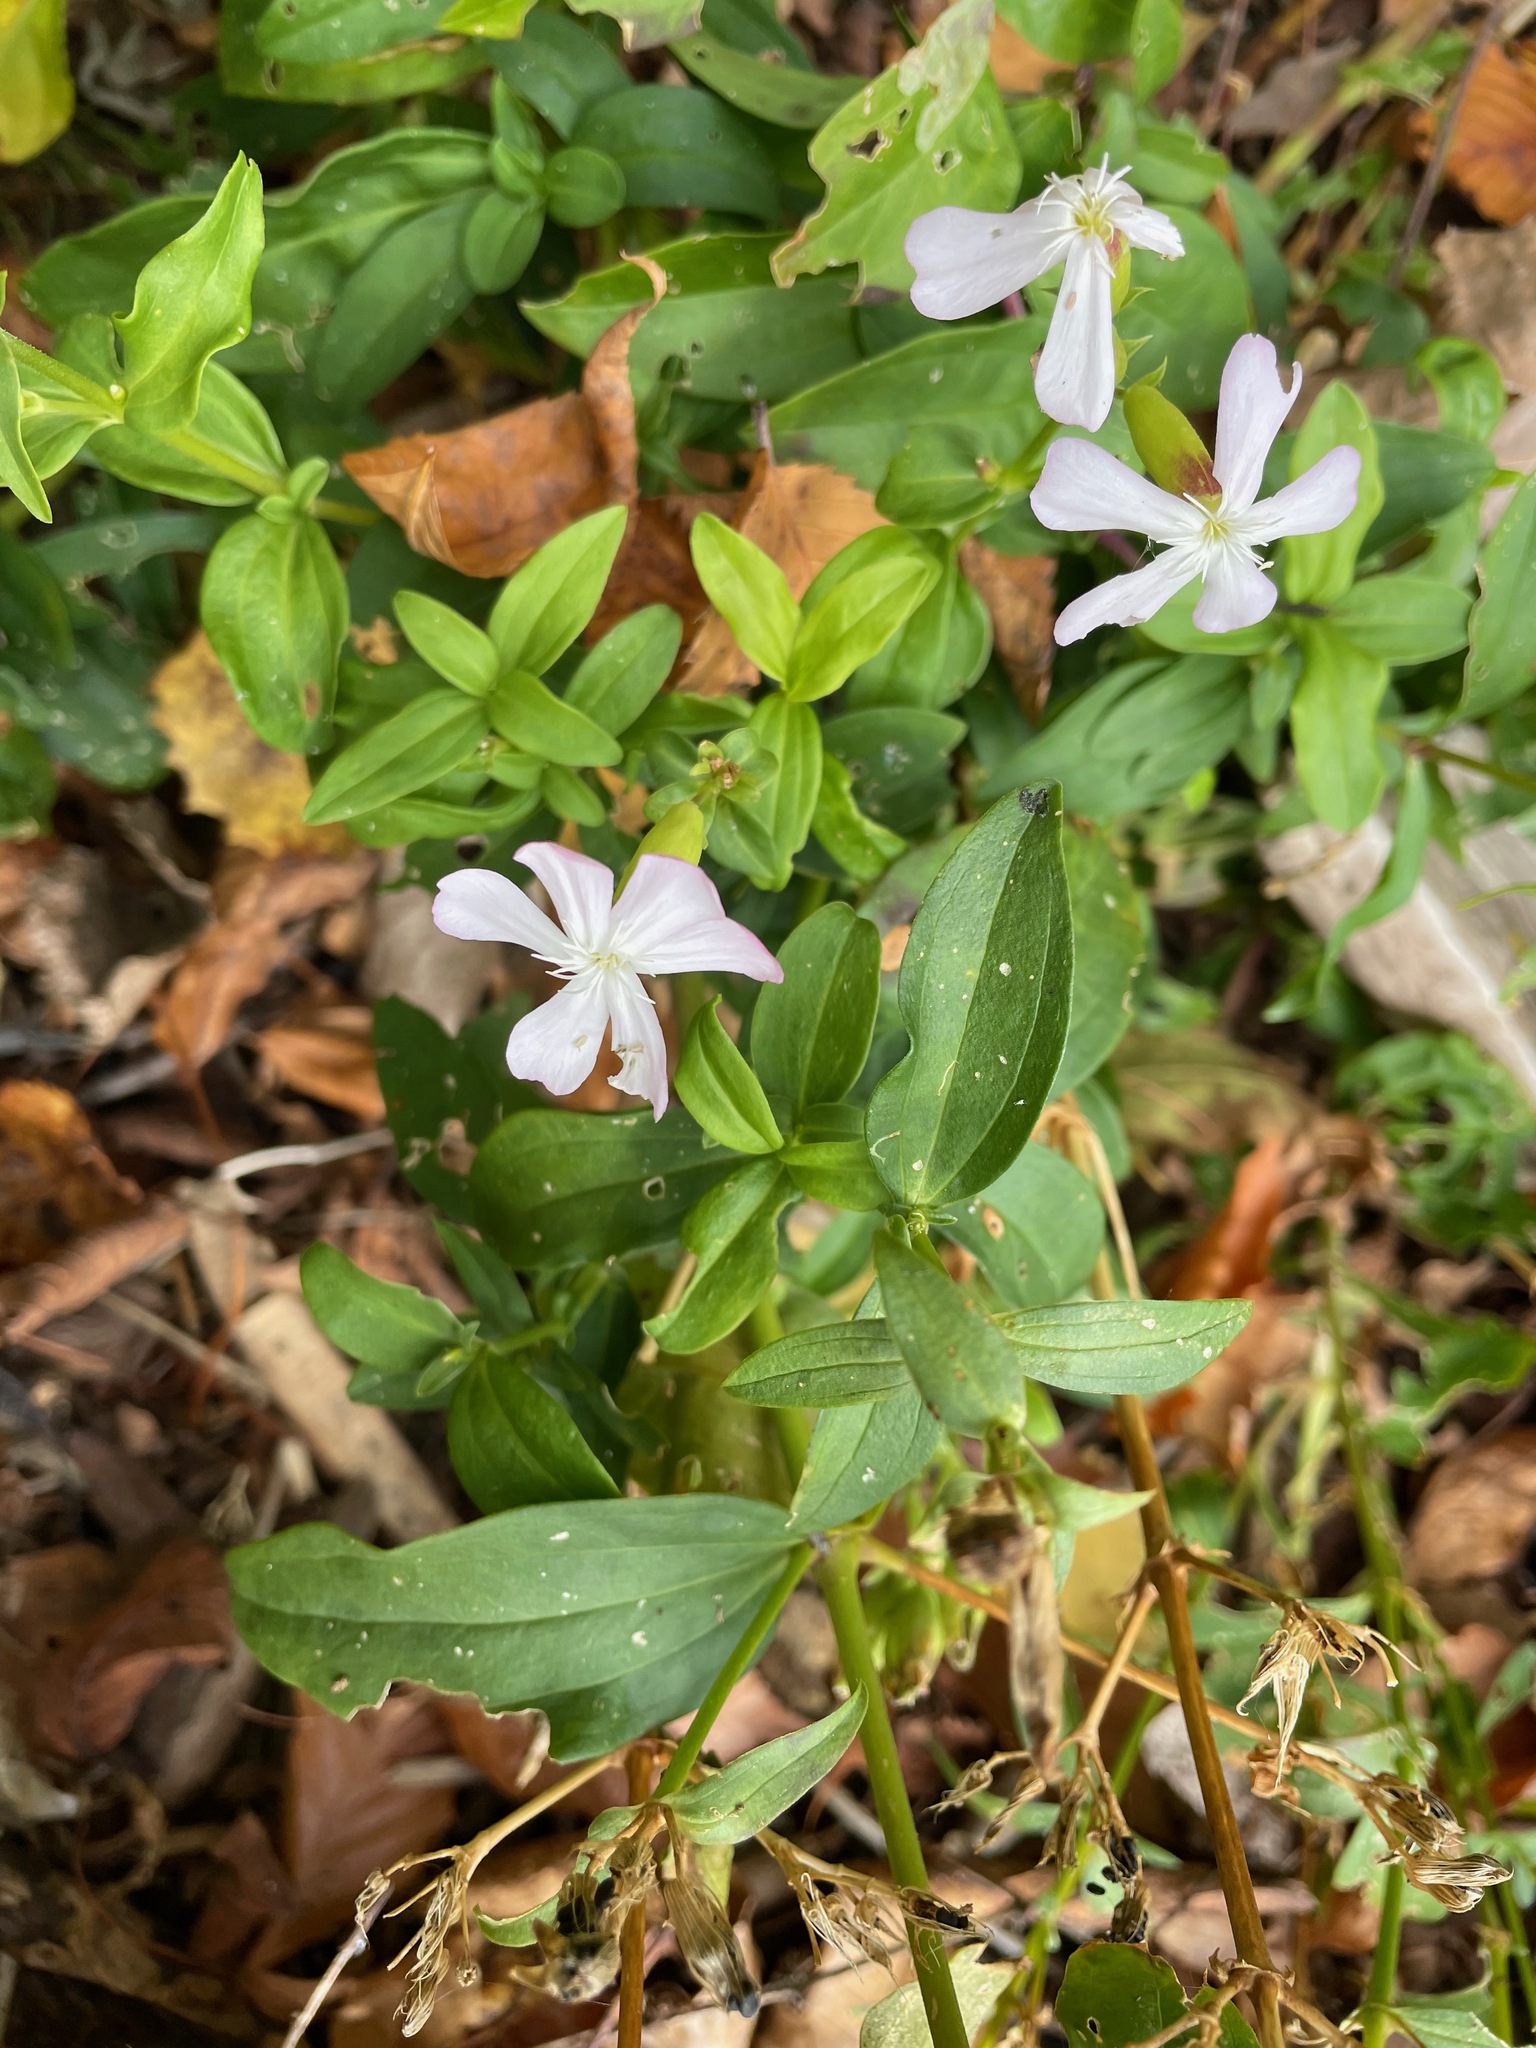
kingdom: Plantae
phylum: Tracheophyta
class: Magnoliopsida
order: Caryophyllales
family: Caryophyllaceae
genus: Saponaria
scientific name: Saponaria officinalis
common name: Soapwort
